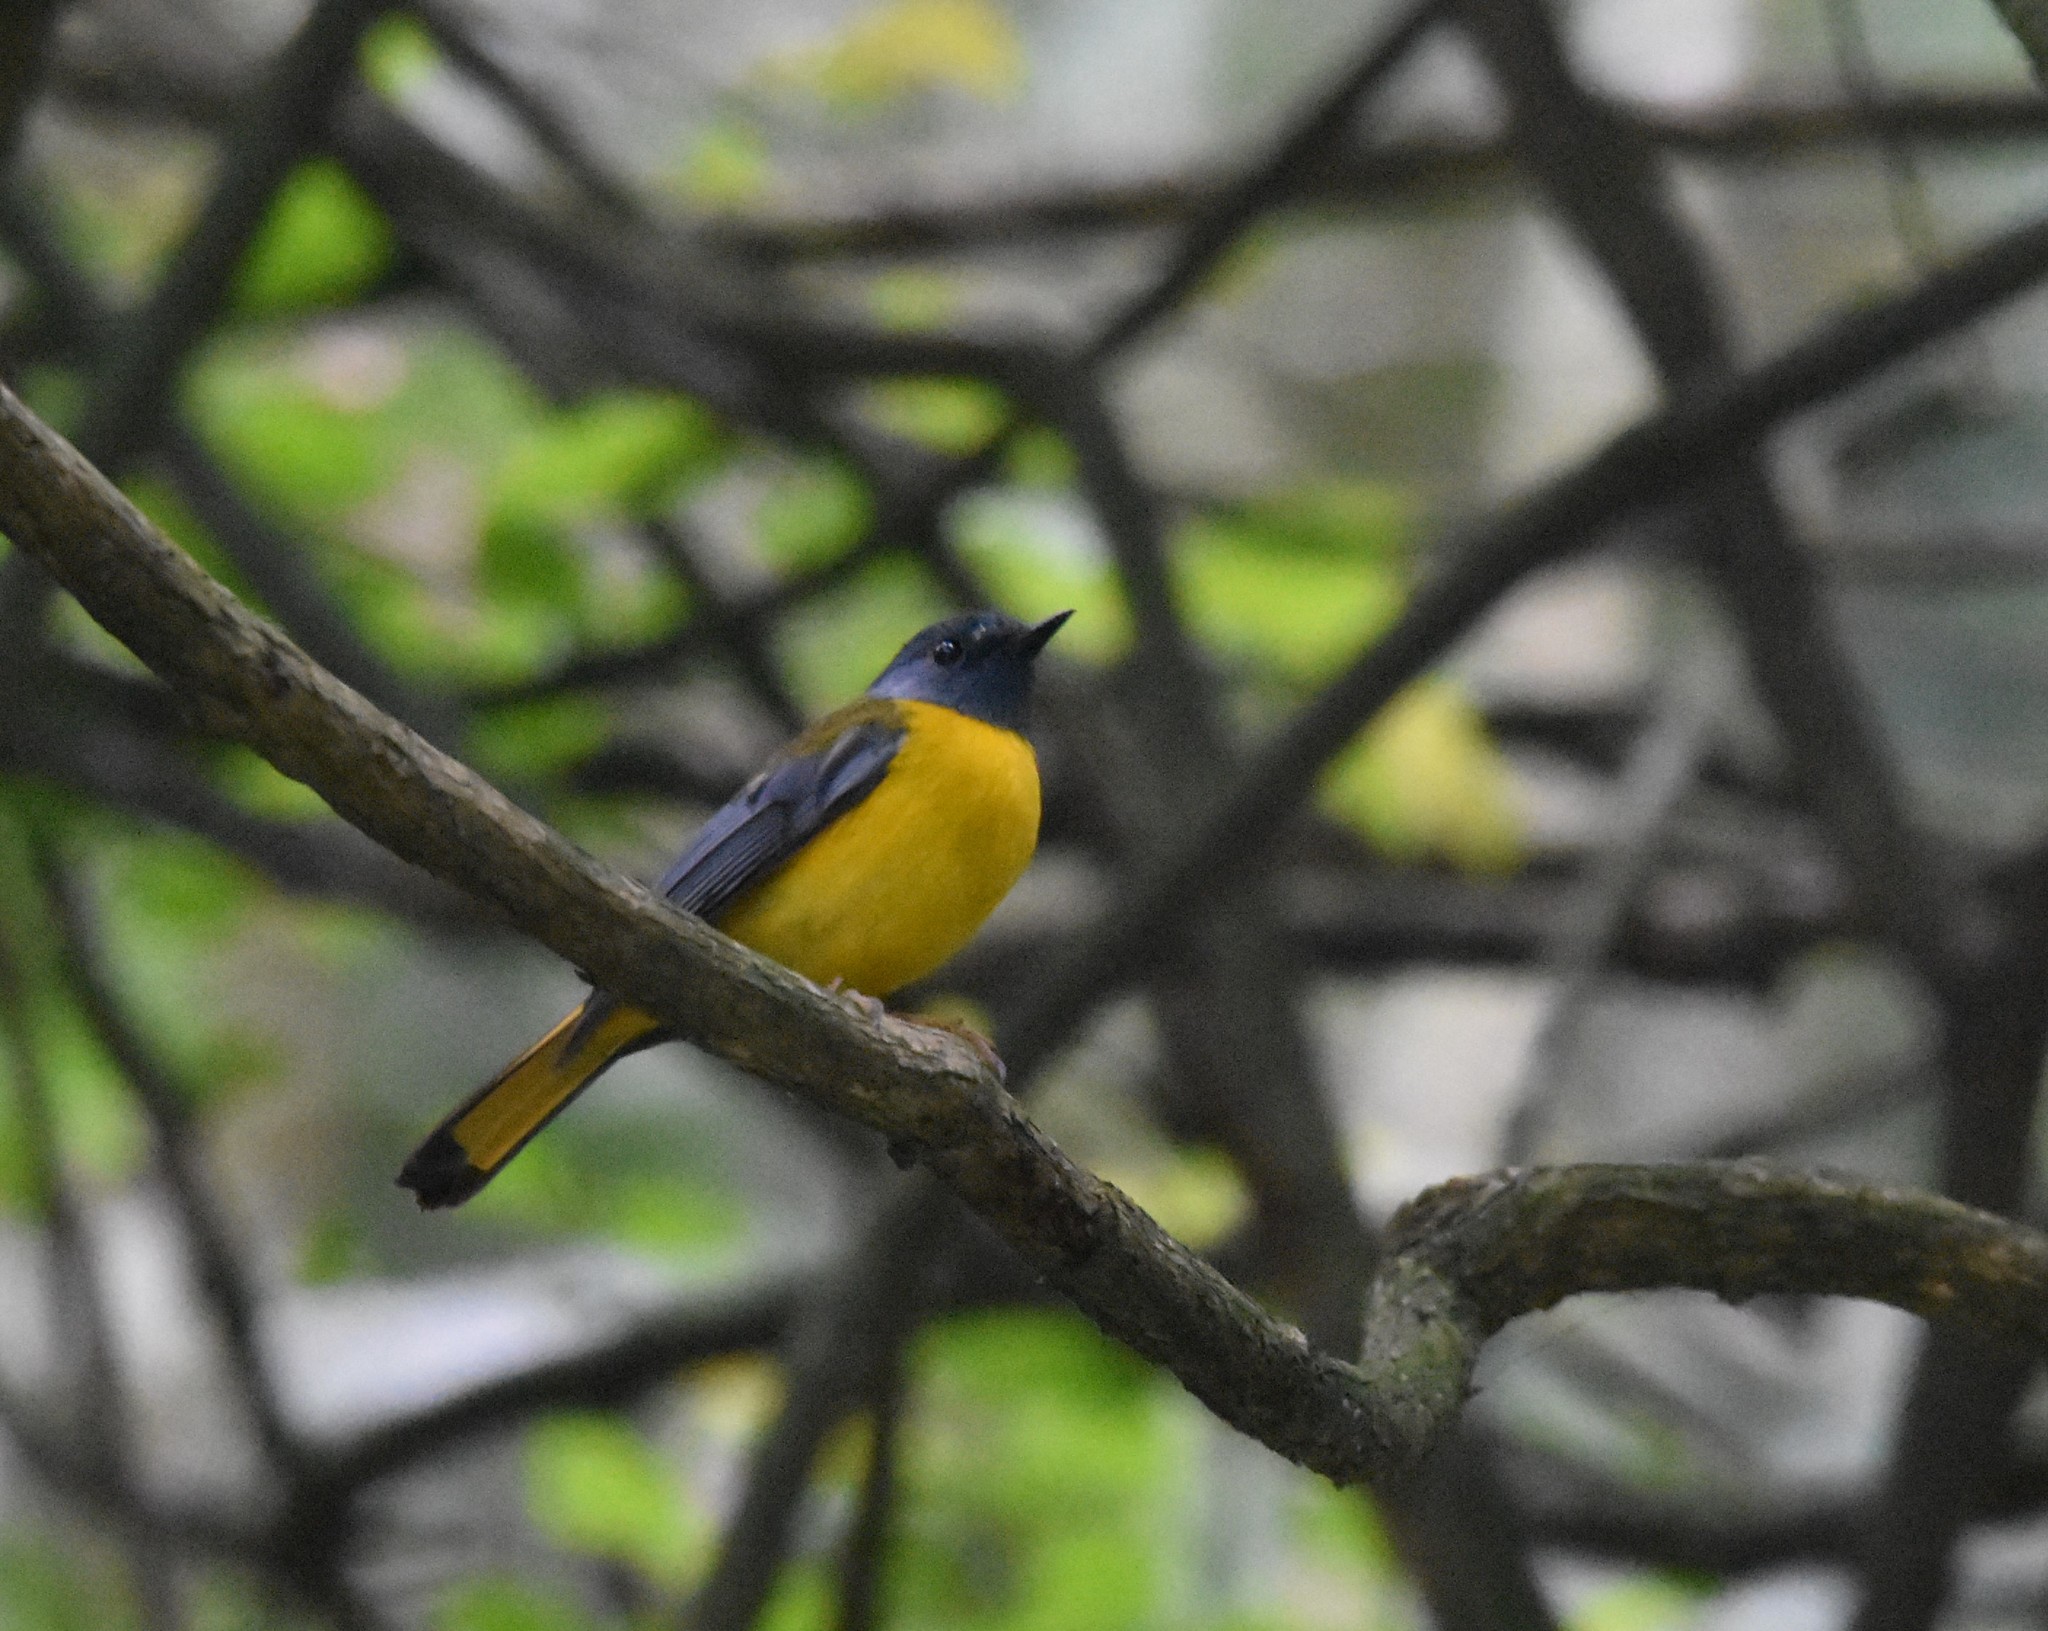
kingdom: Animalia
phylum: Chordata
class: Aves
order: Passeriformes
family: Muscicapidae
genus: Pogonocichla
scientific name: Pogonocichla stellata
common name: White-starred robin
